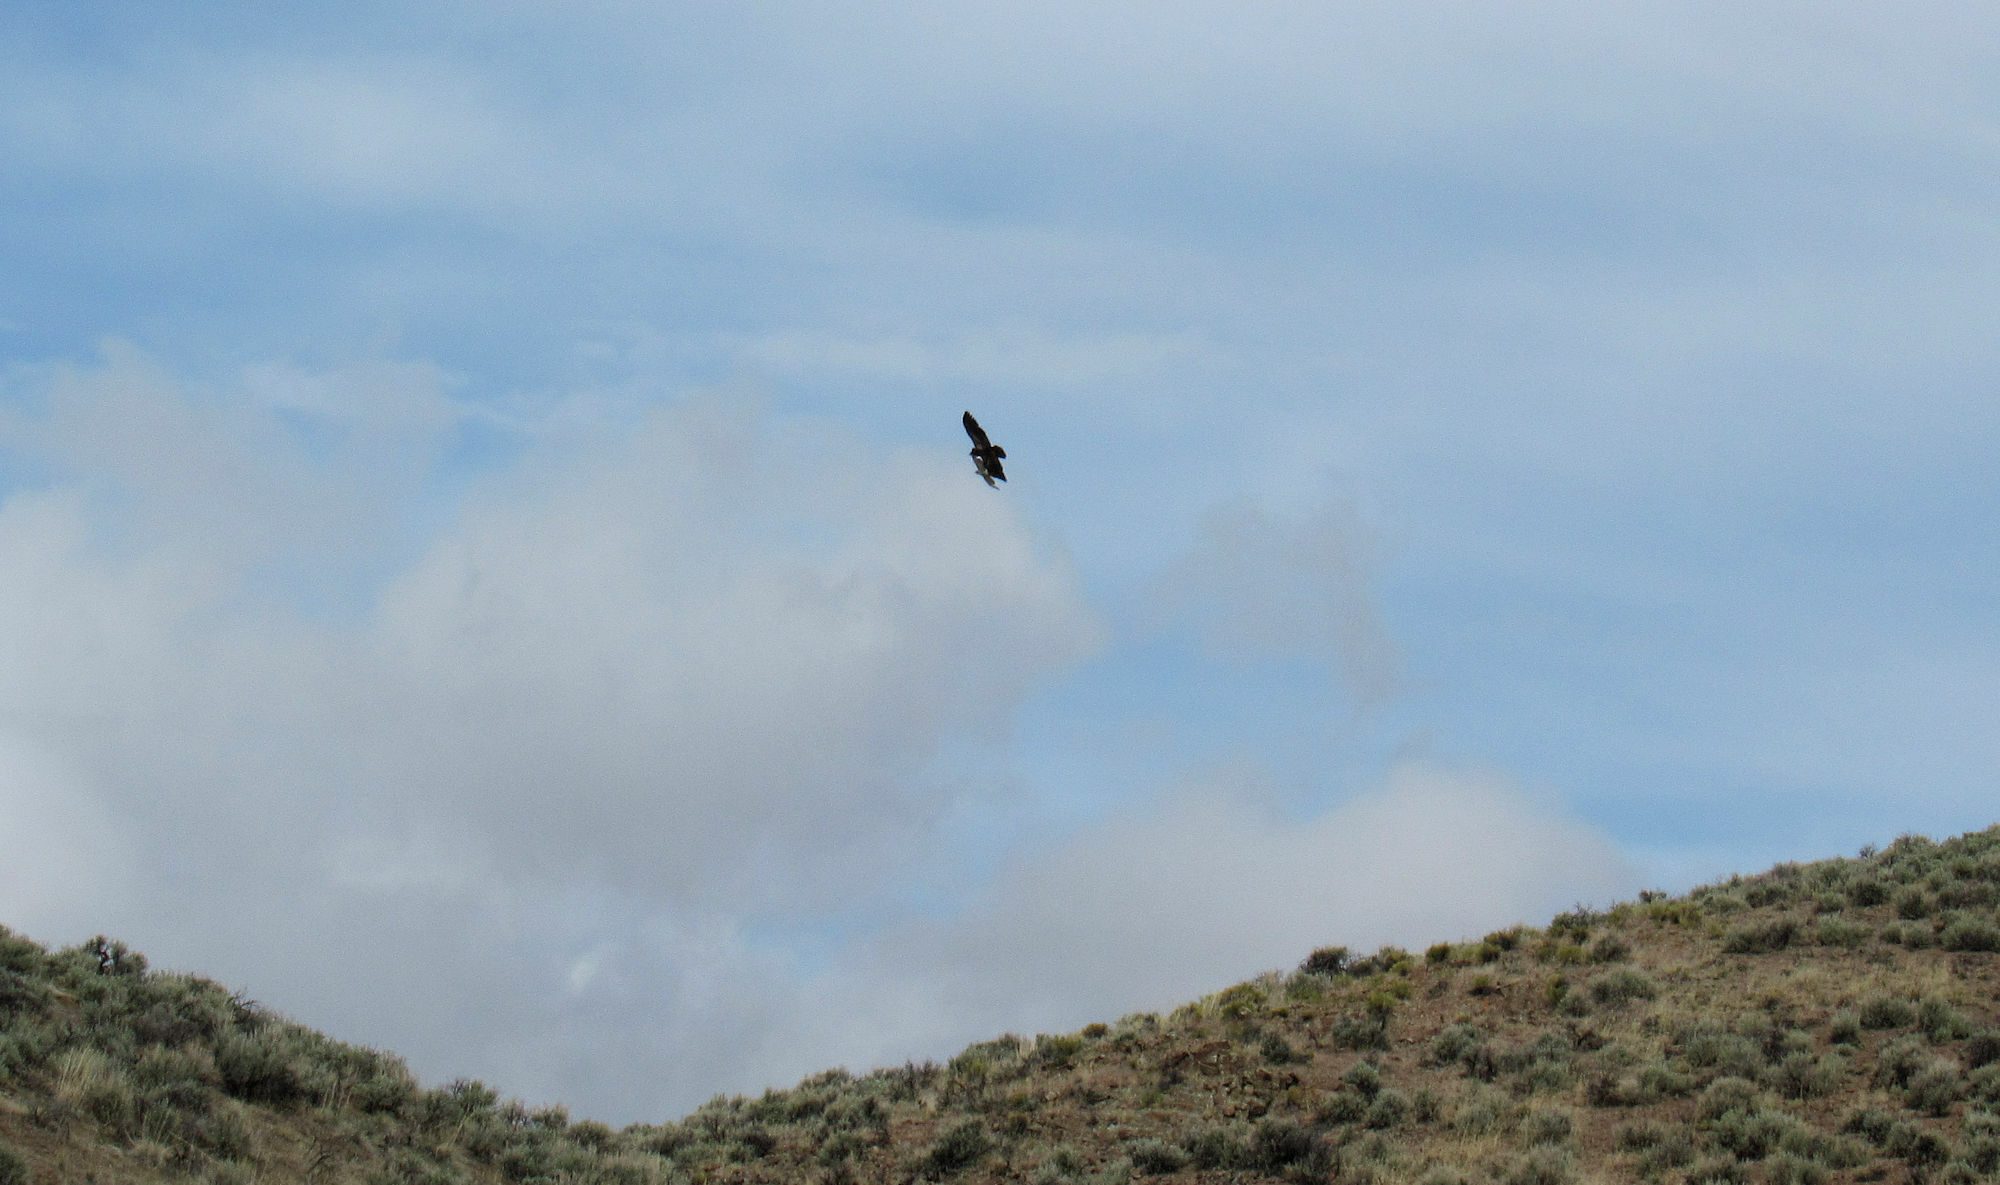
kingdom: Animalia
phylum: Chordata
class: Aves
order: Accipitriformes
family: Accipitridae
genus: Buteo
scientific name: Buteo jamaicensis
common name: Red-tailed hawk
